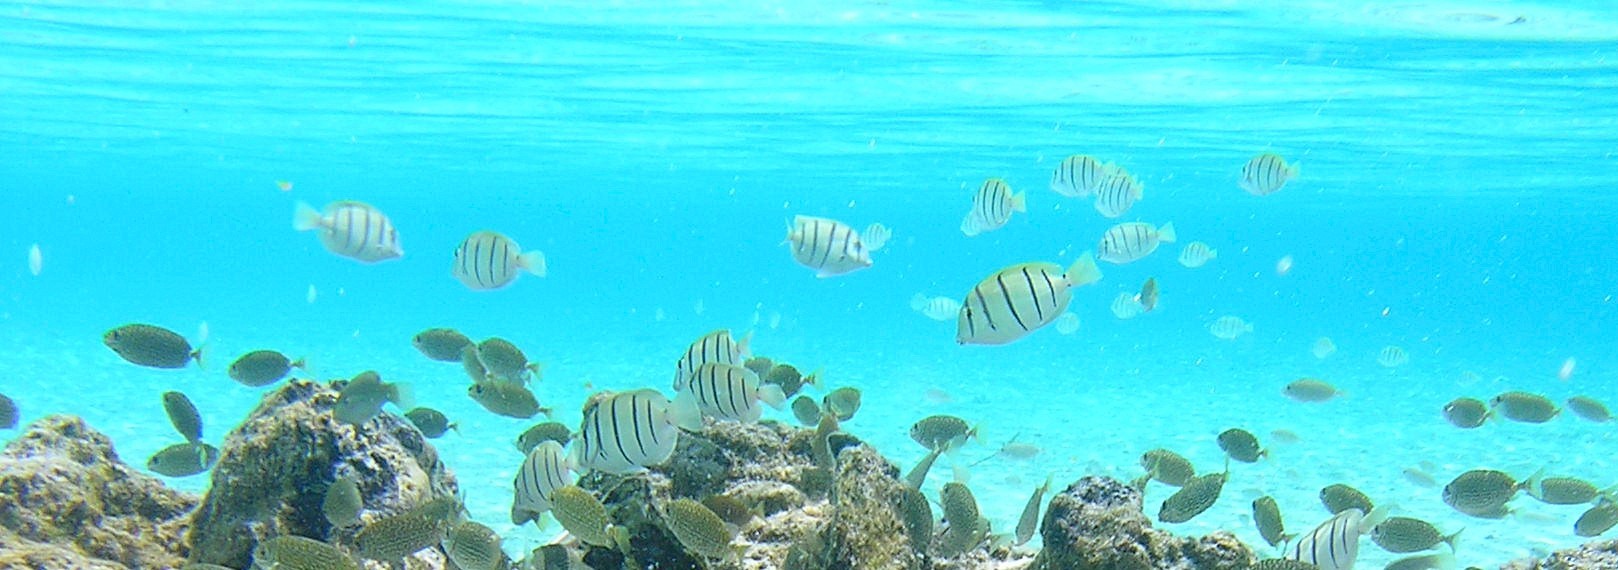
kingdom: Animalia
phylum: Chordata
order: Perciformes
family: Acanthuridae
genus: Acanthurus
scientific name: Acanthurus triostegus
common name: Convict surgeonfish
